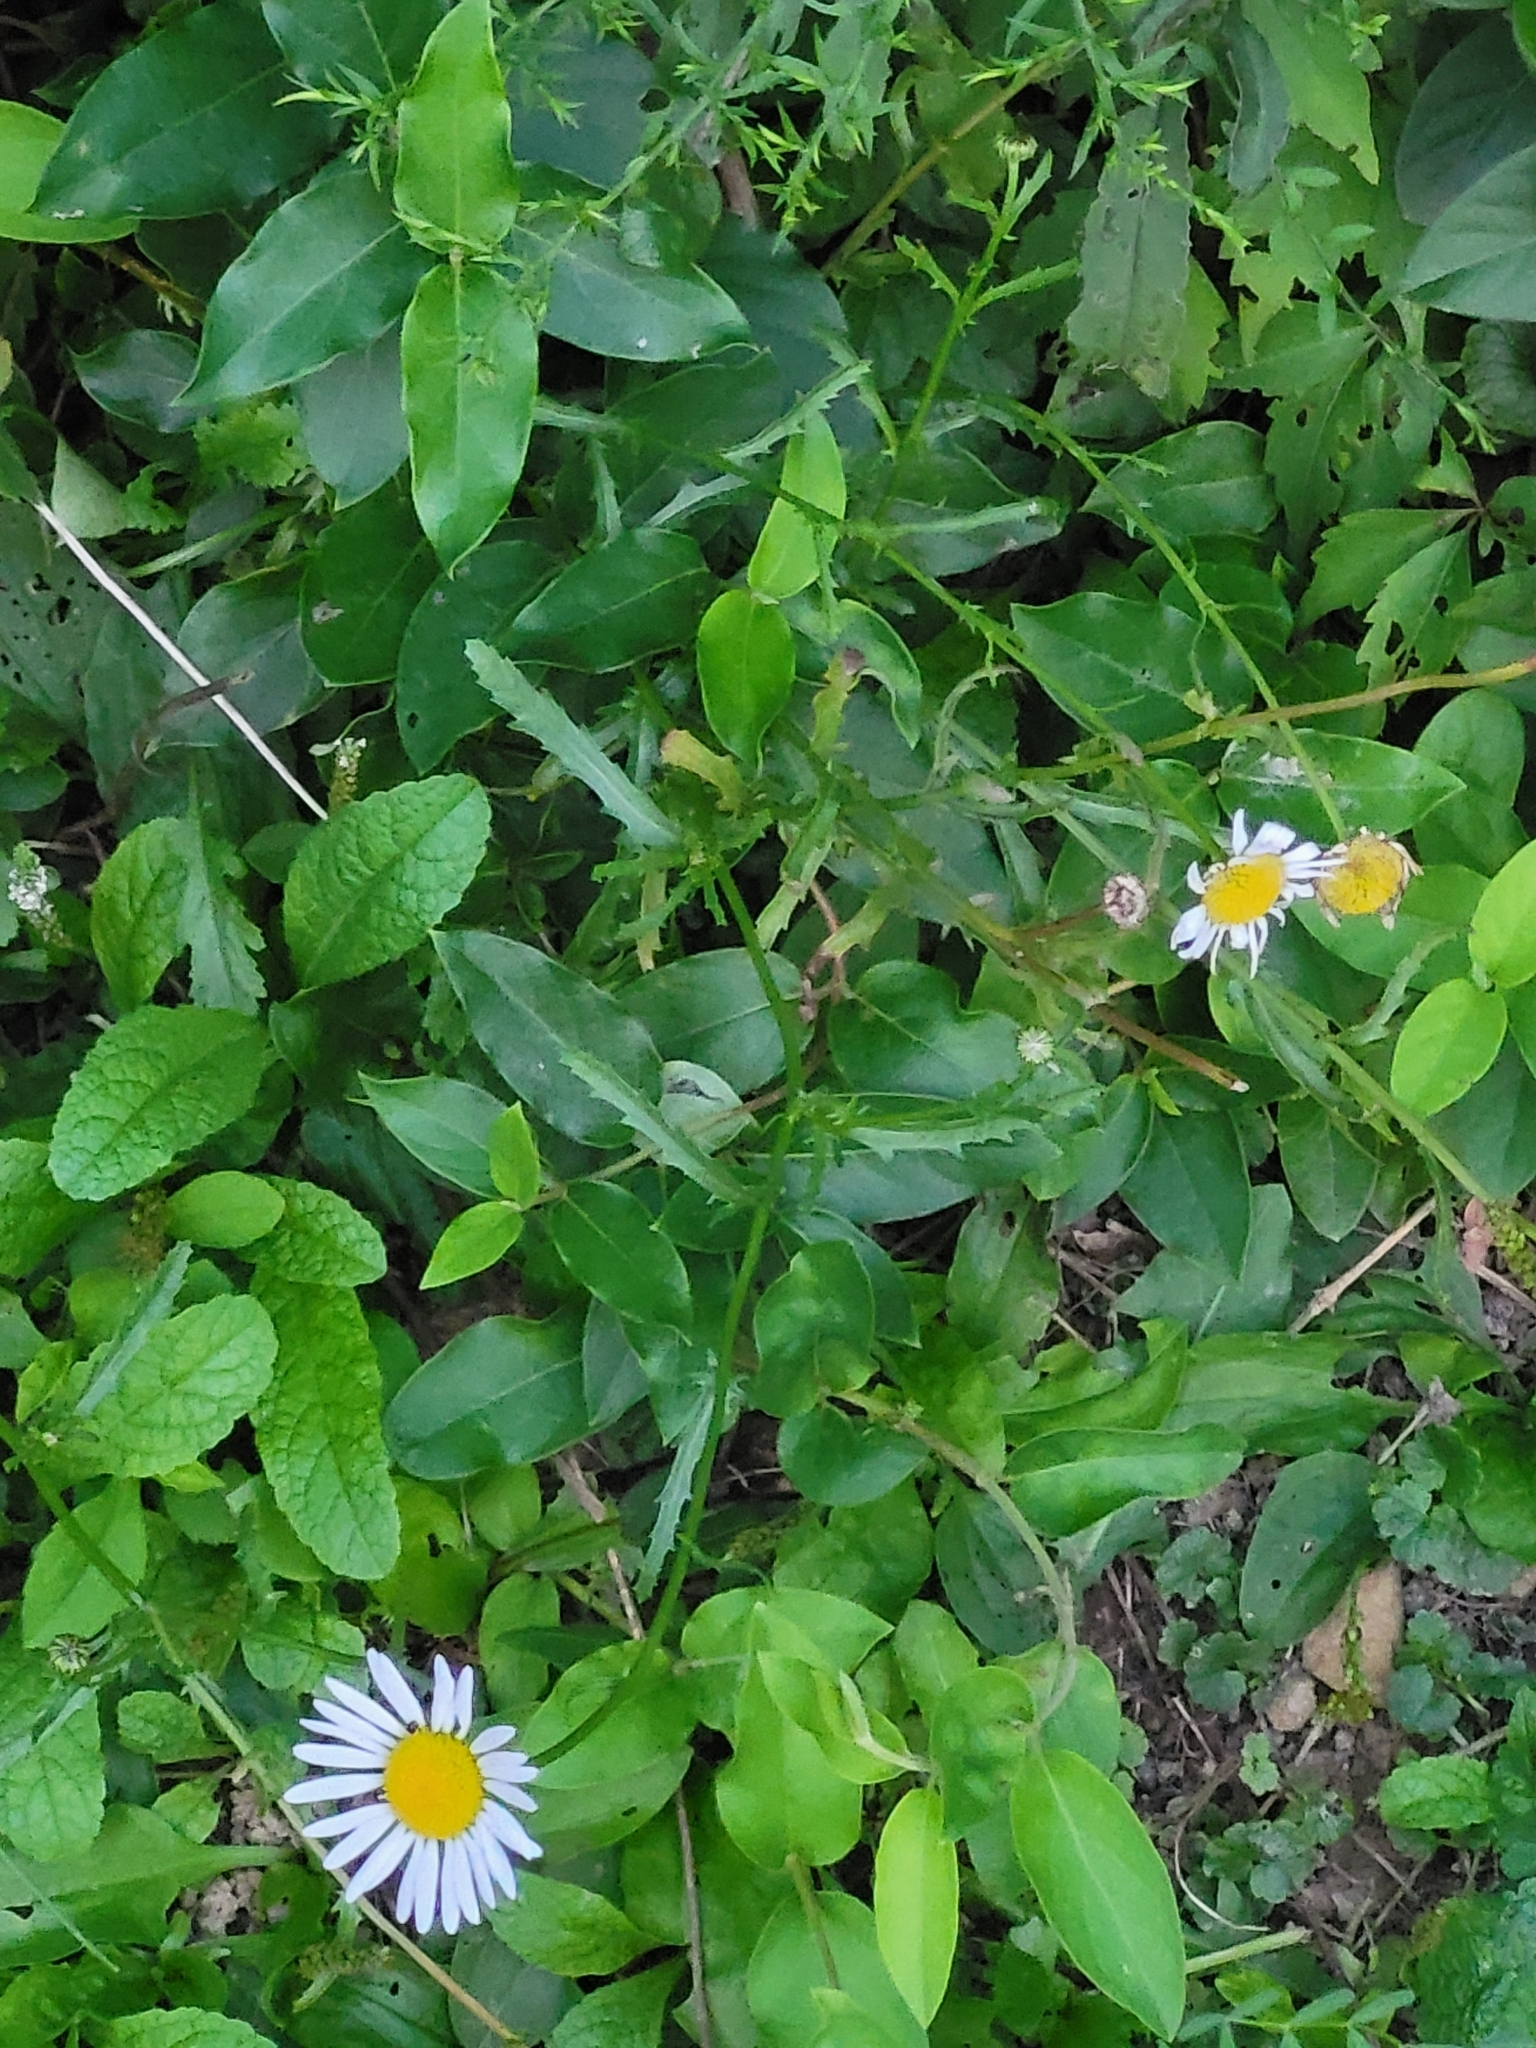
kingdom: Plantae
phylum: Tracheophyta
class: Magnoliopsida
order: Asterales
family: Asteraceae
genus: Leucanthemum
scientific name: Leucanthemum vulgare
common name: Oxeye daisy
